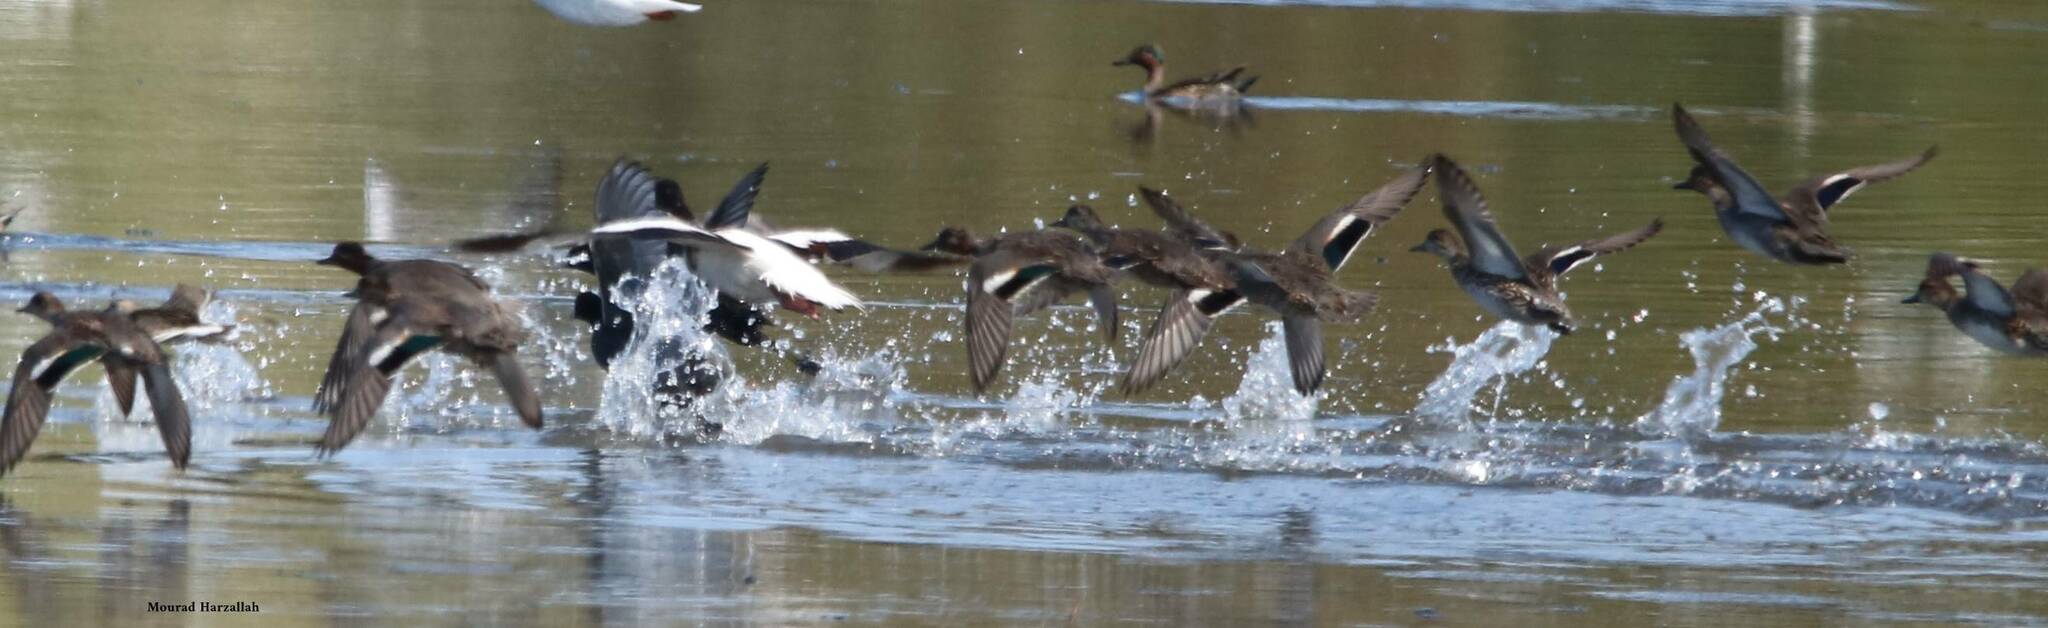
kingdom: Animalia
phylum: Chordata
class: Aves
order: Anseriformes
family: Anatidae
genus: Anas
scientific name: Anas crecca
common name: Eurasian teal
